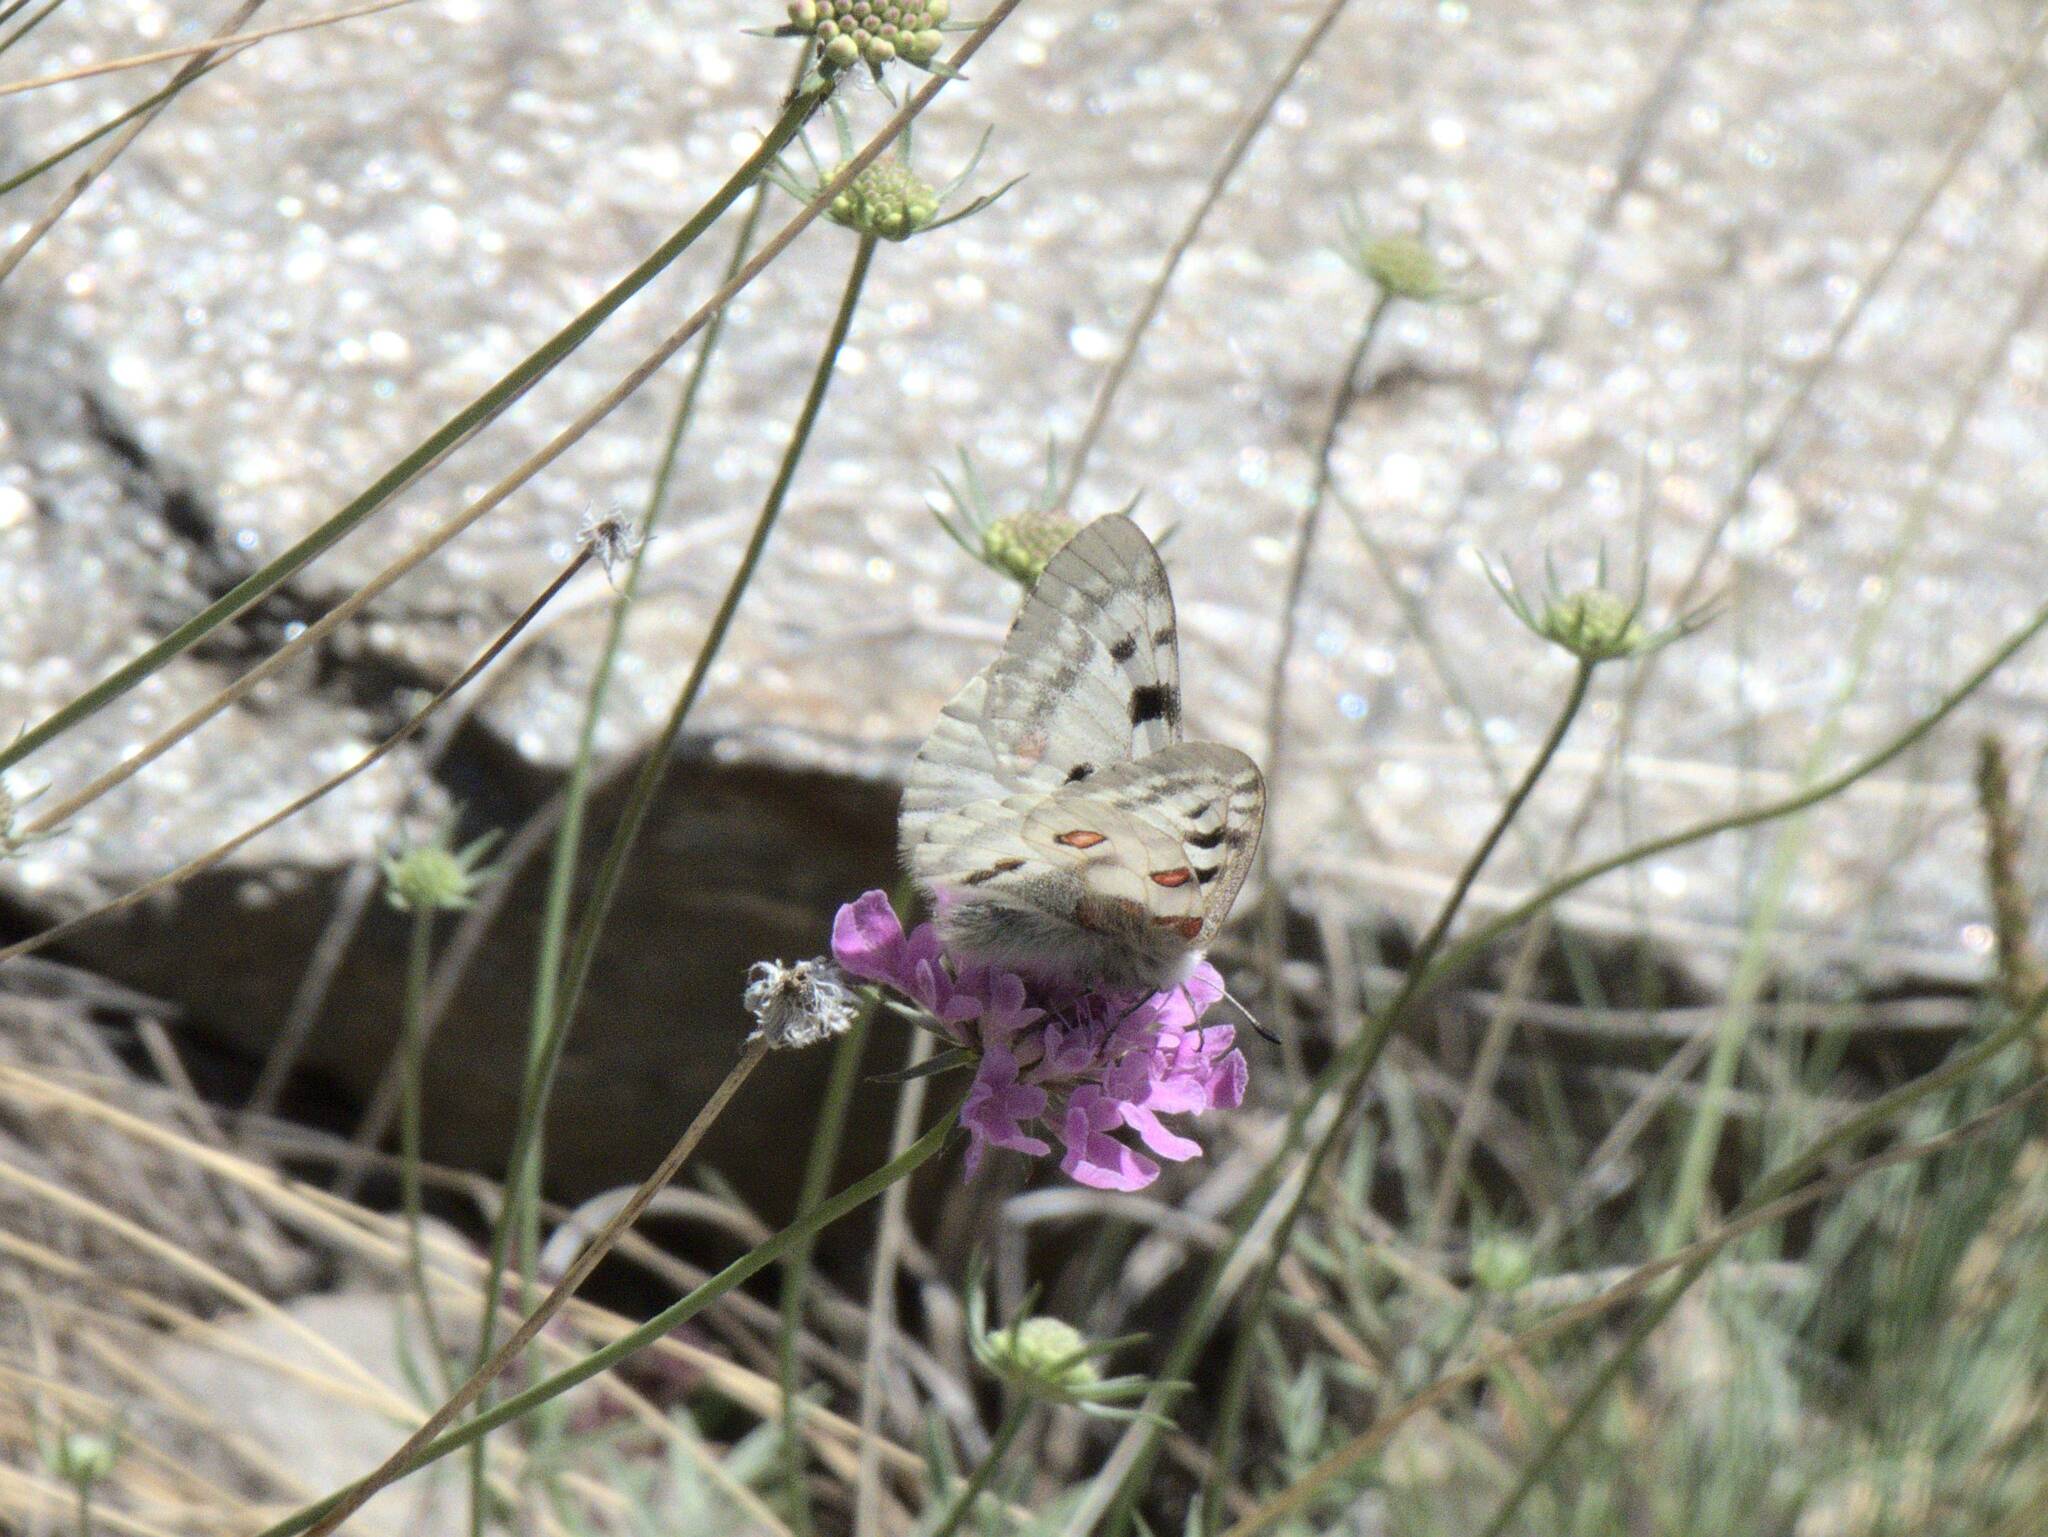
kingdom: Animalia
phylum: Arthropoda
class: Insecta
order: Lepidoptera
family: Papilionidae
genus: Parnassius
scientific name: Parnassius apollo
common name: Apollo
